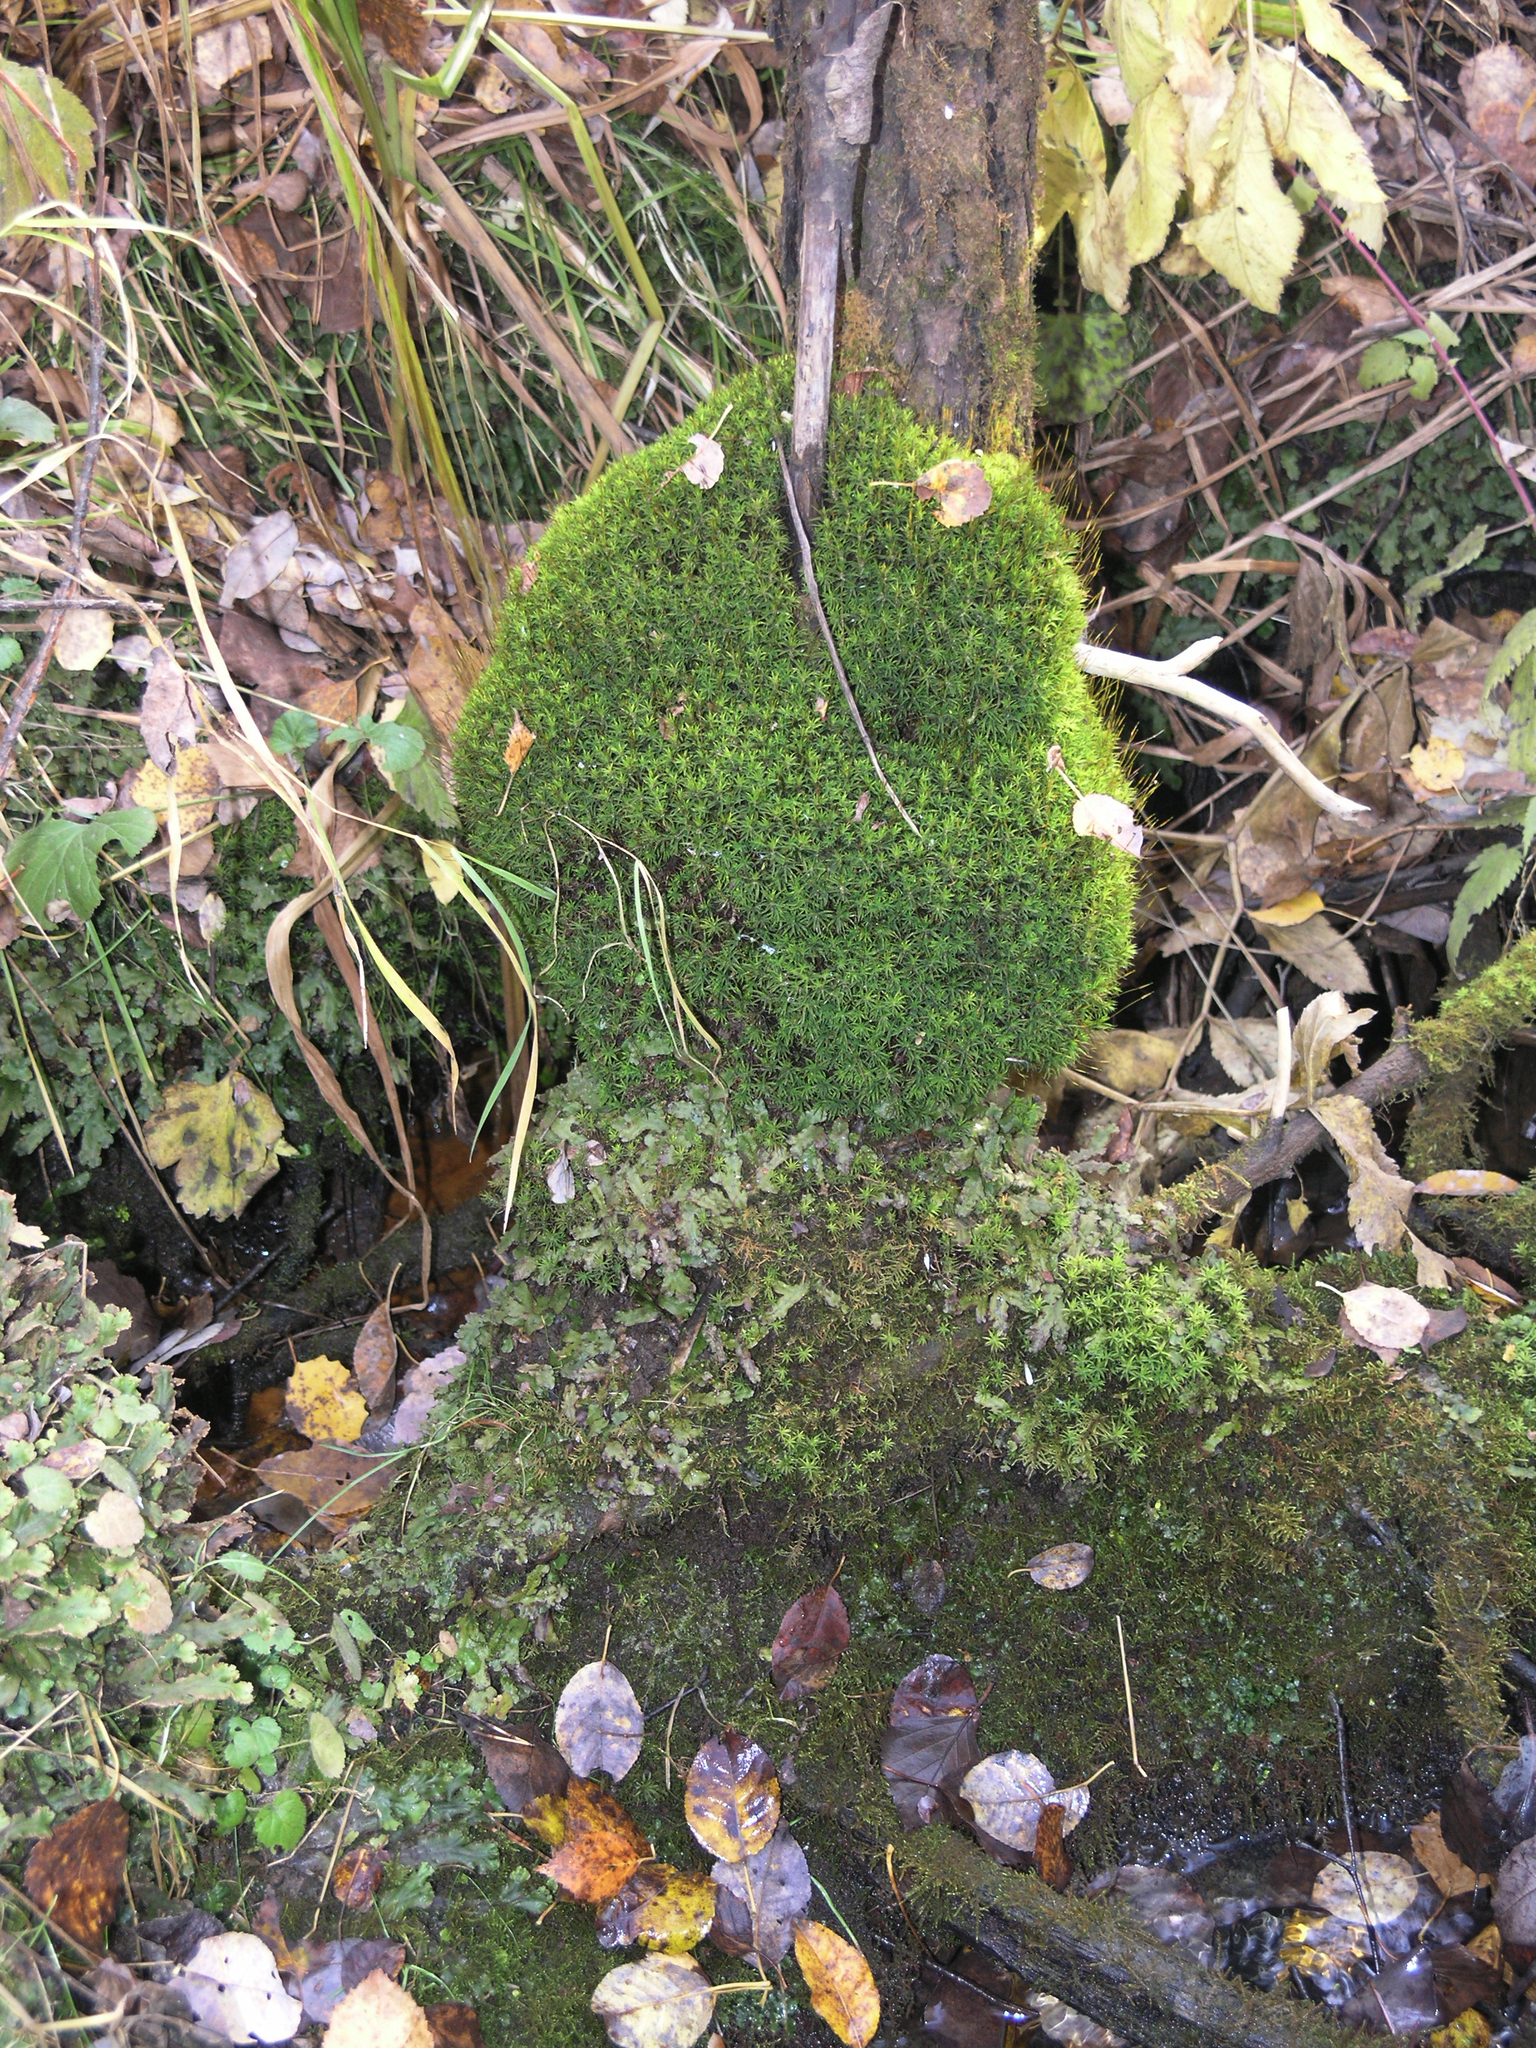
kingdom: Plantae
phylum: Marchantiophyta
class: Marchantiopsida
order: Marchantiales
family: Marchantiaceae
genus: Marchantia
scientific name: Marchantia polymorpha
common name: Common liverwort
